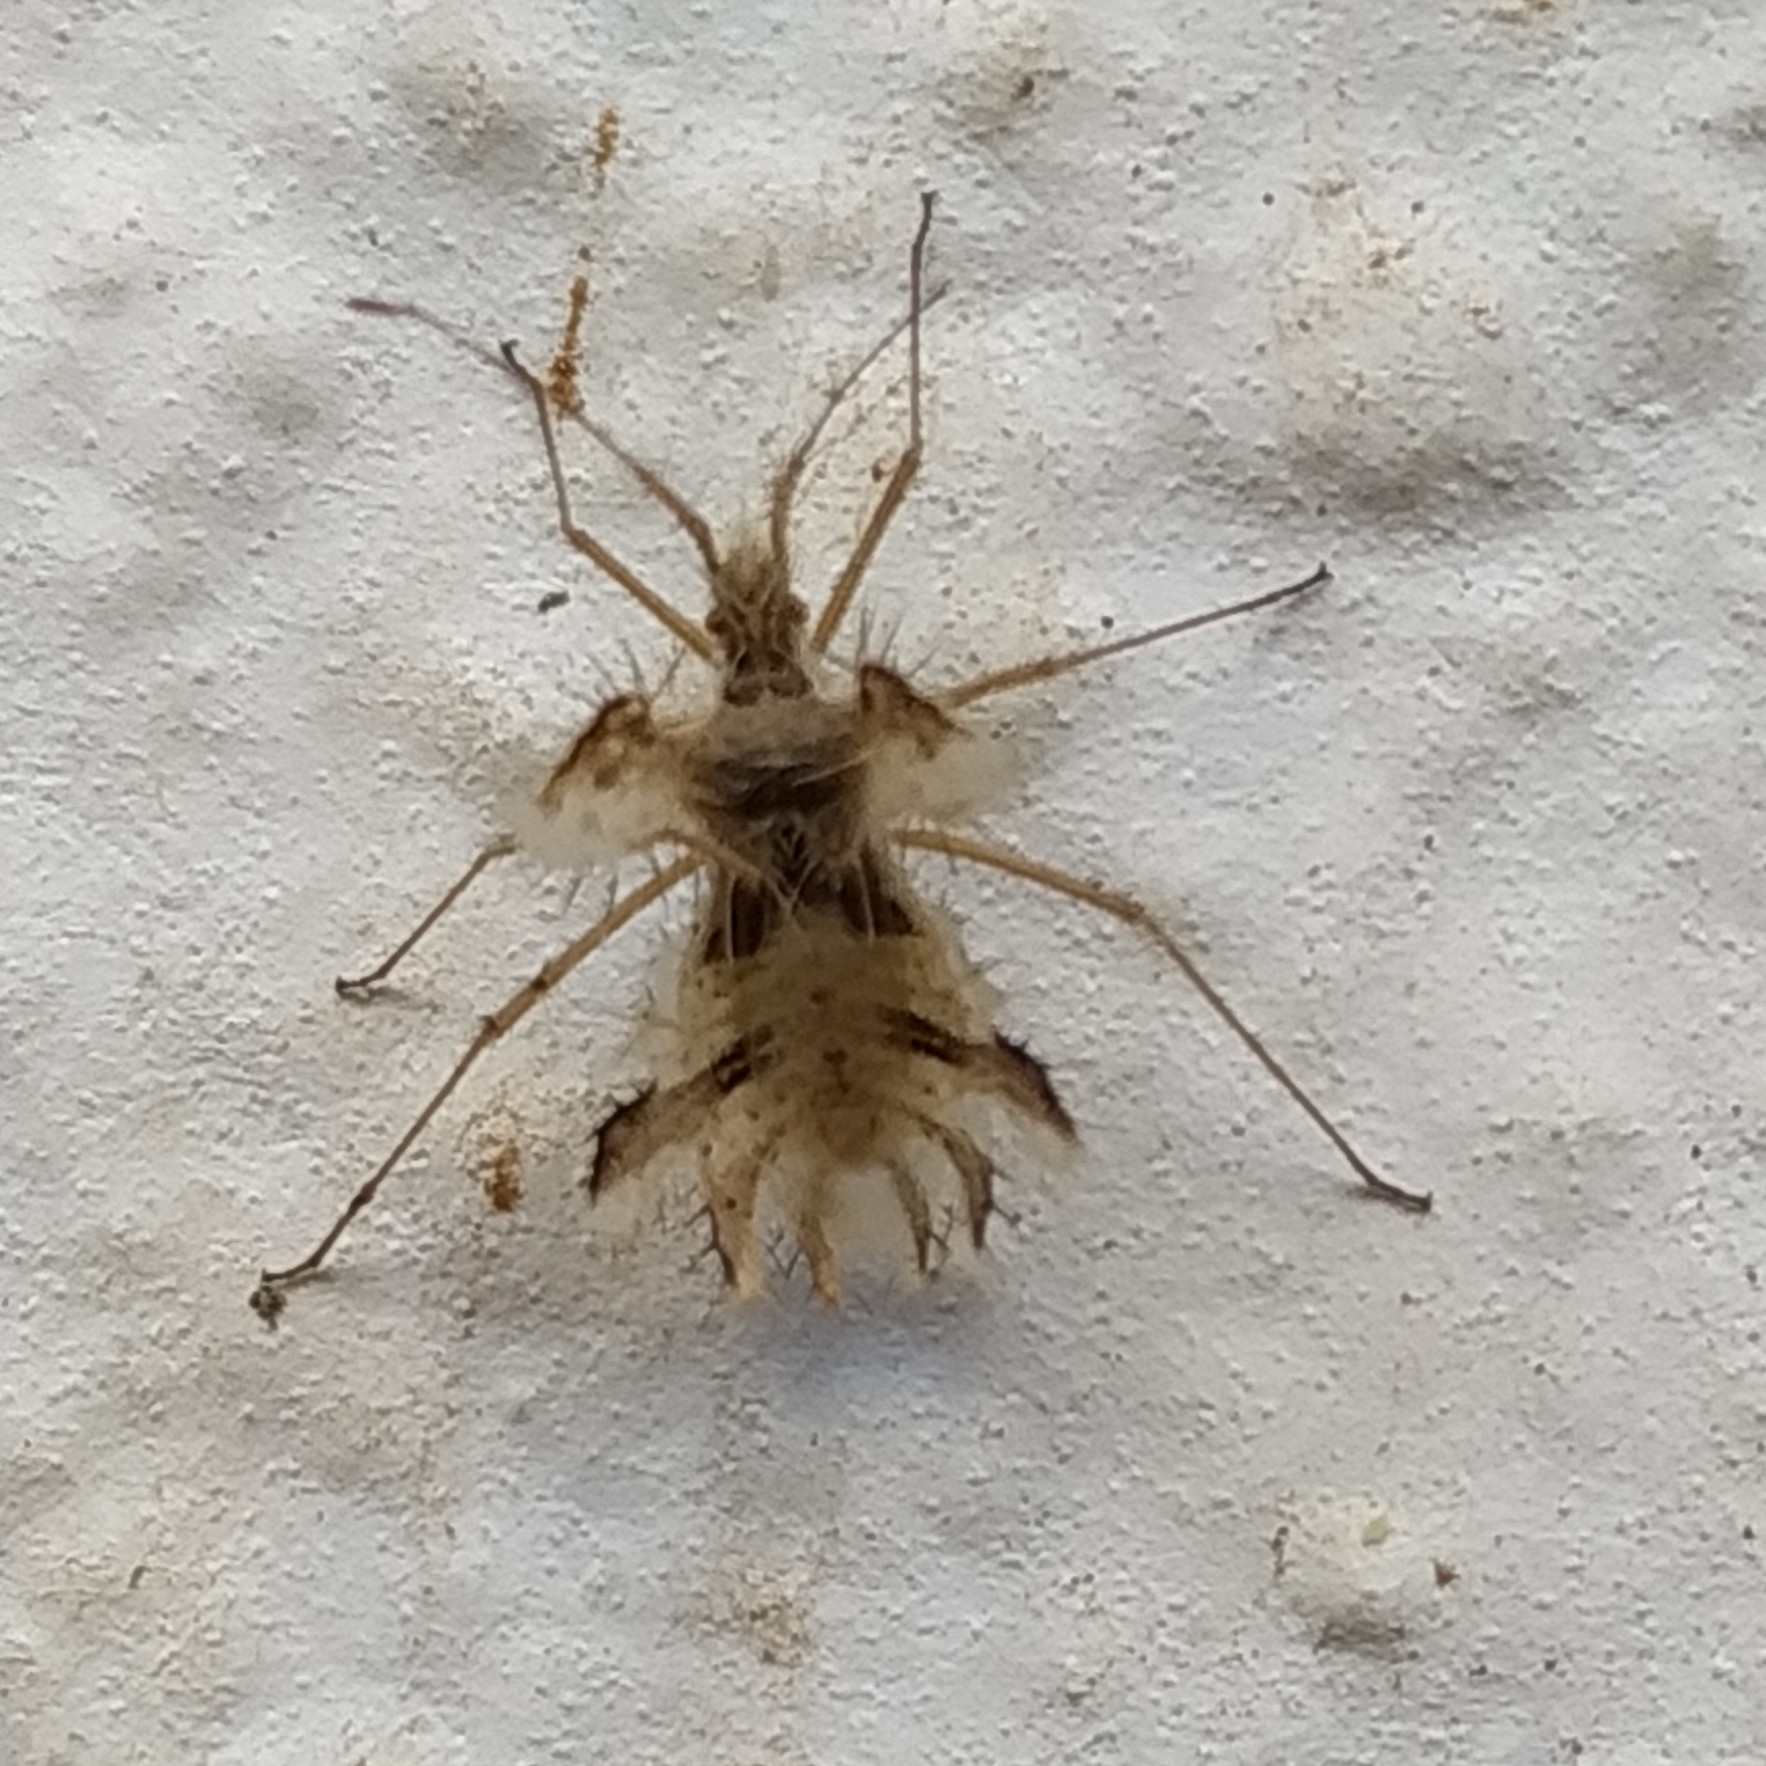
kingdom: Animalia
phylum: Arthropoda
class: Insecta
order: Hemiptera
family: Coreidae
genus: Phyllomorpha
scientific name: Phyllomorpha laciniata
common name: Golden egg bug
